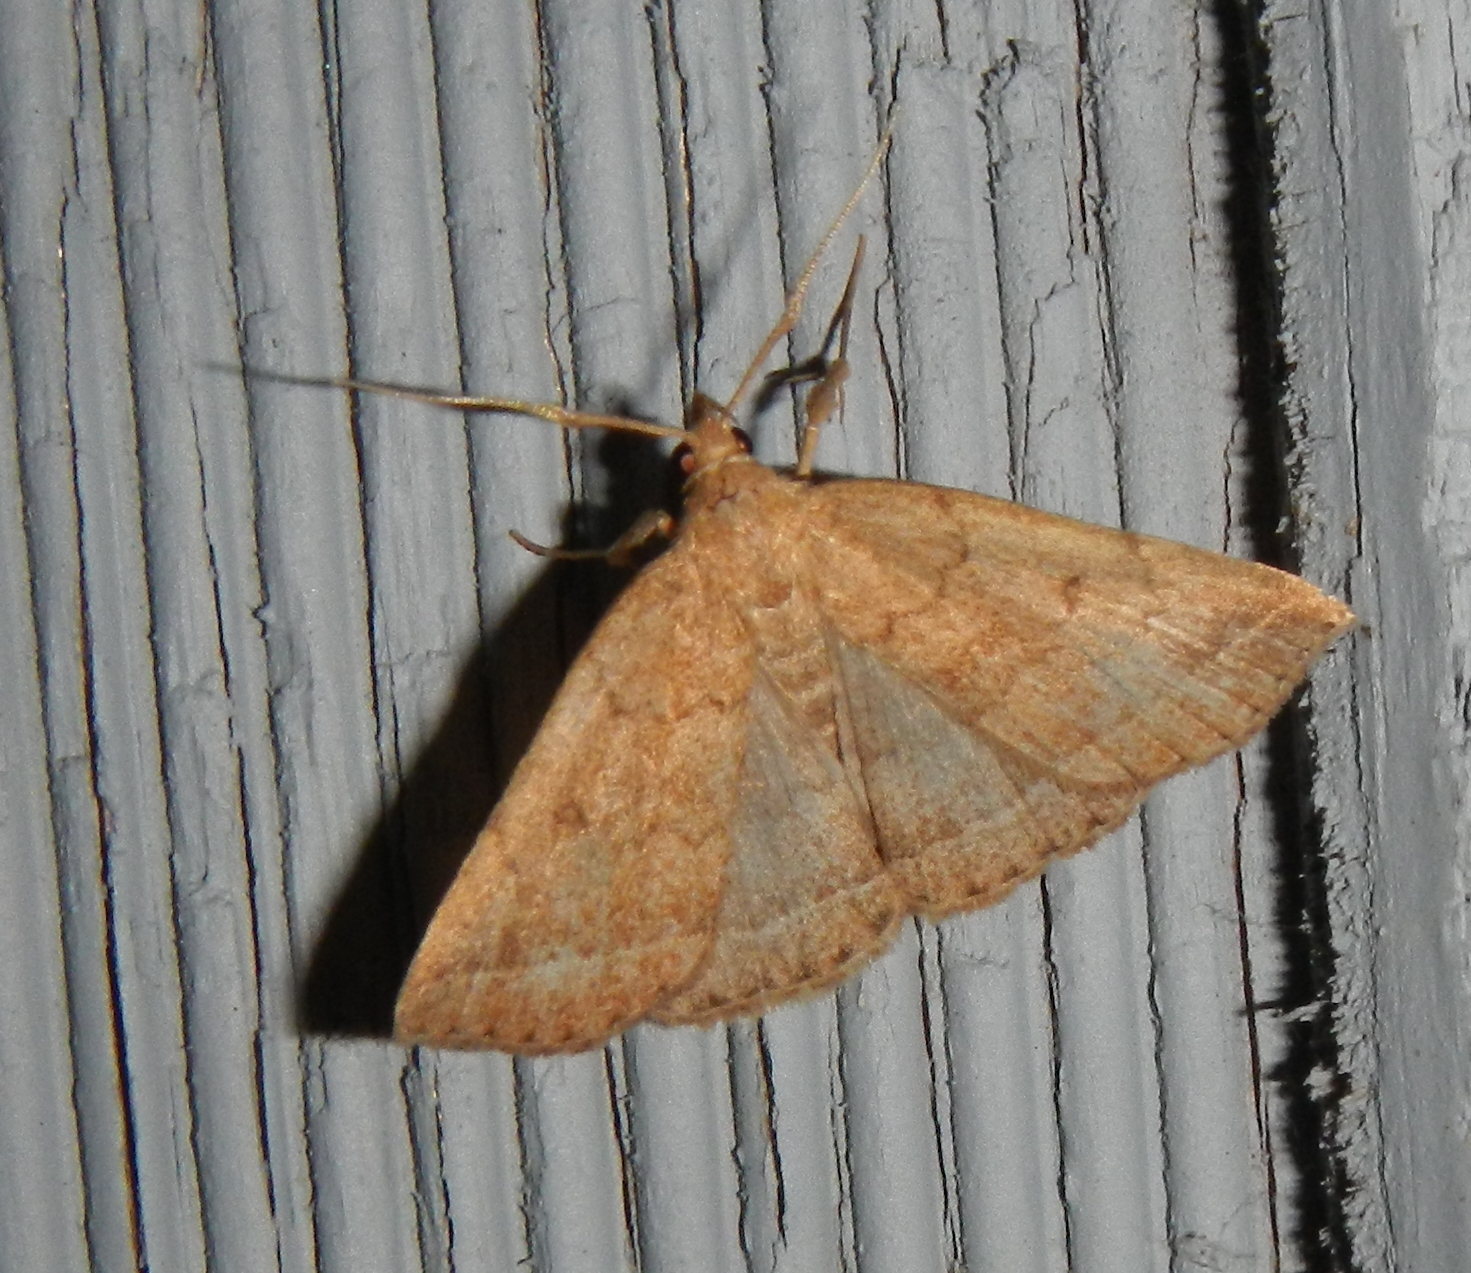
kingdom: Animalia
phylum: Arthropoda
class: Insecta
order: Lepidoptera
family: Erebidae
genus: Zanclognatha
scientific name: Zanclognatha jacchusalis
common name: Yellowish zanclognatha
